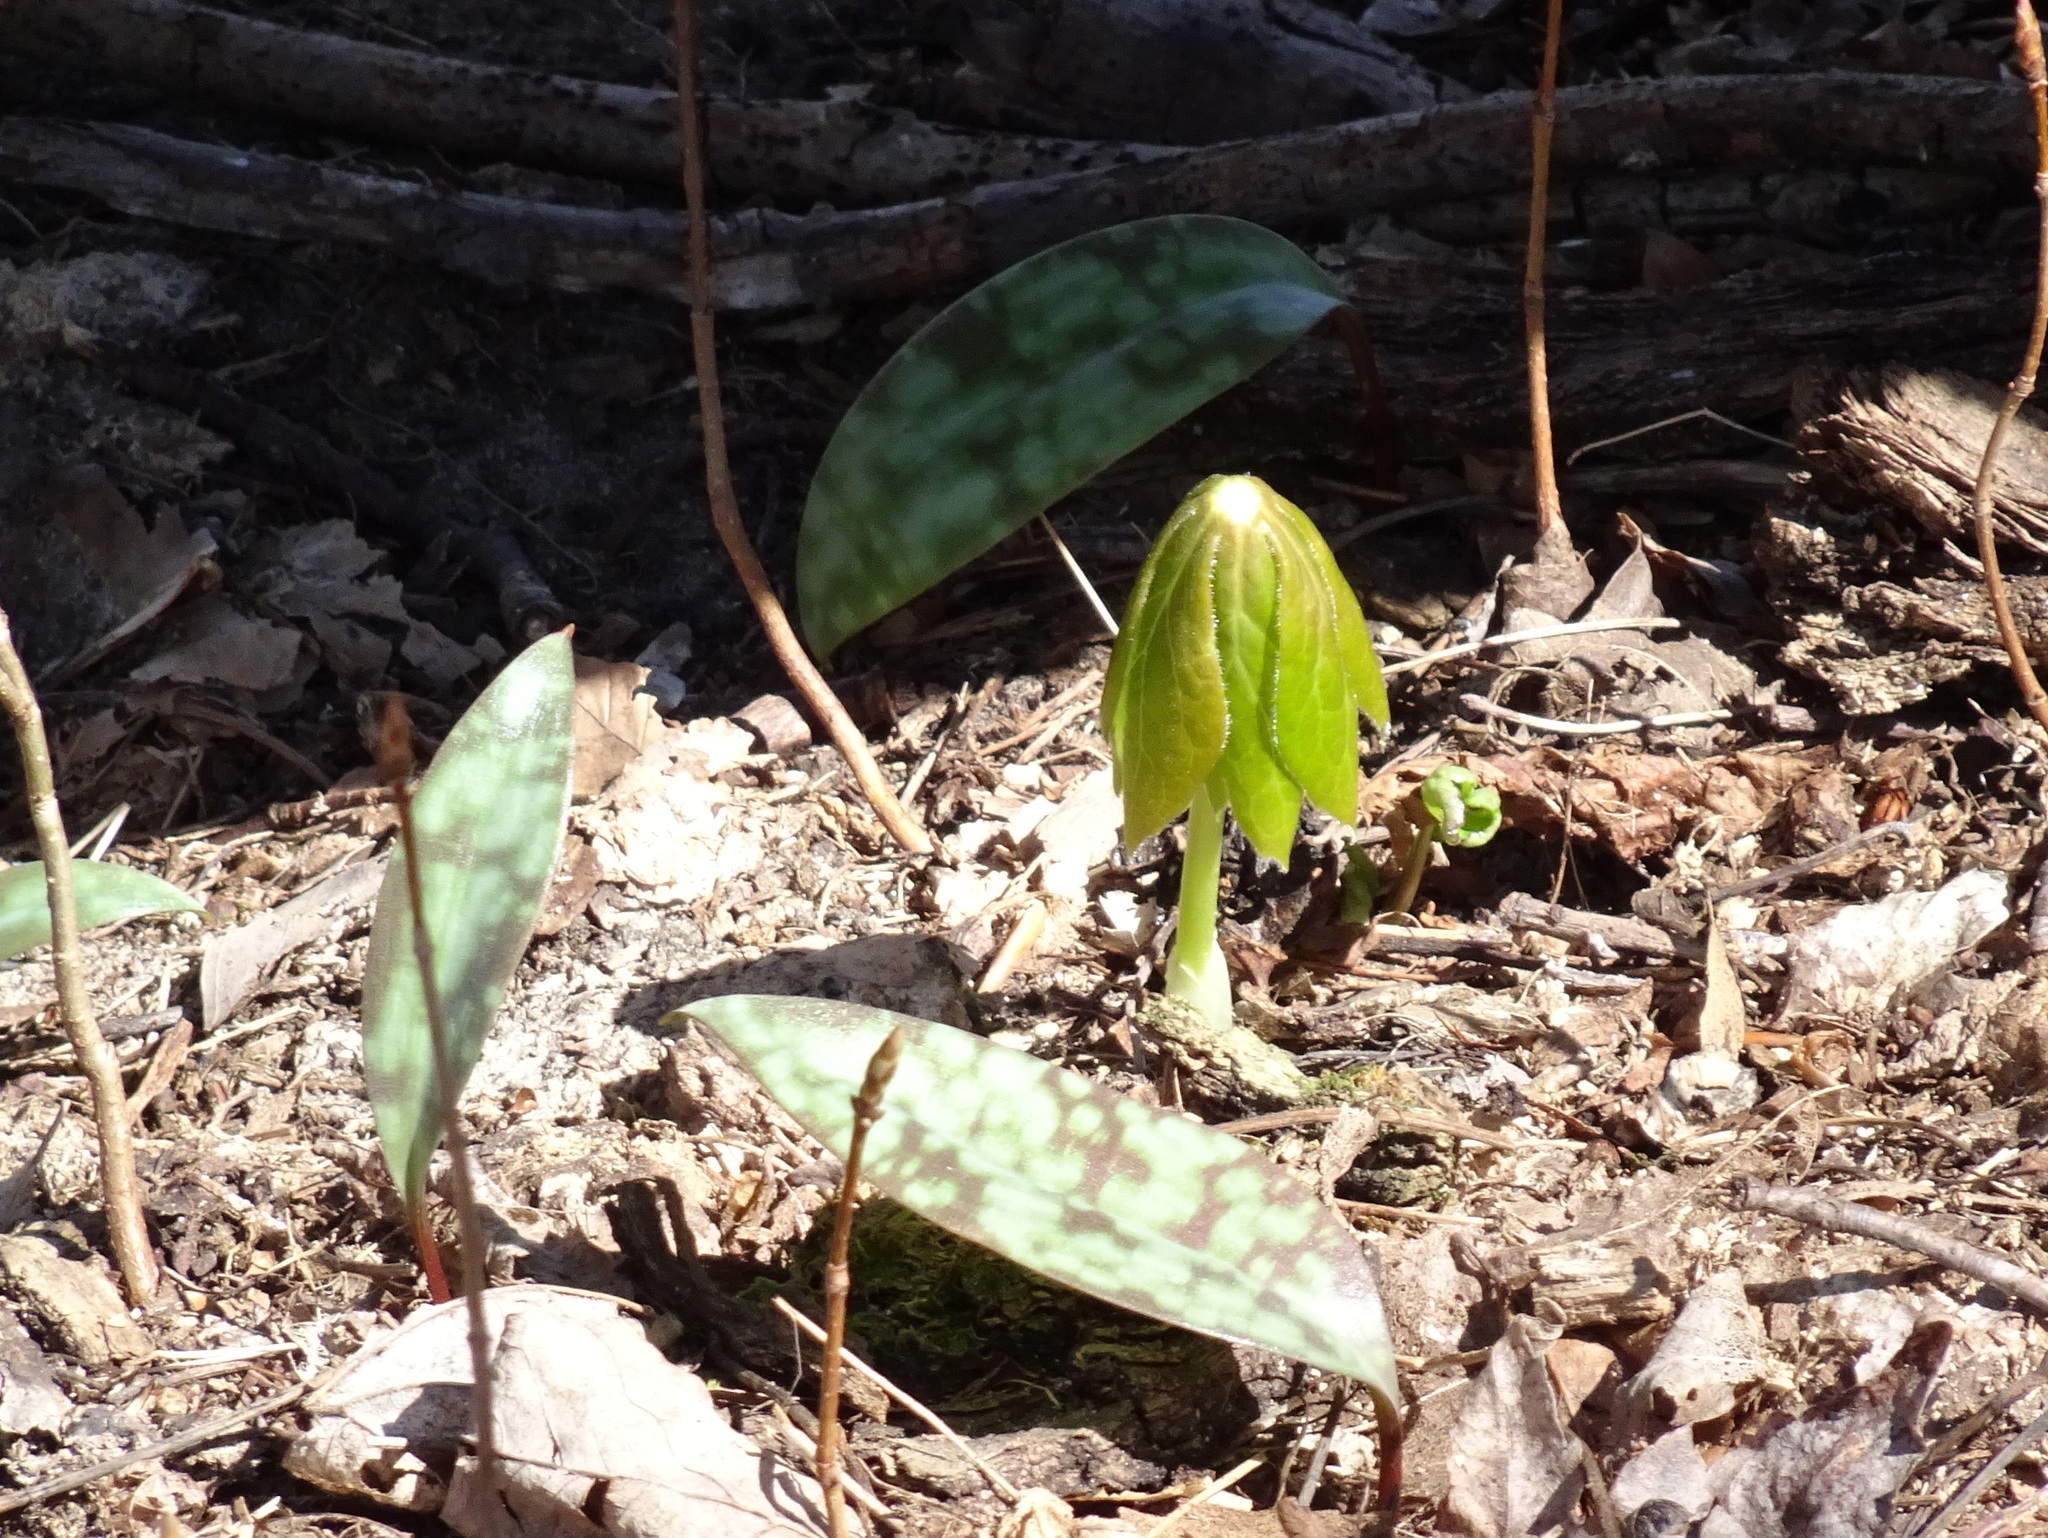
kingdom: Plantae
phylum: Tracheophyta
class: Magnoliopsida
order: Ranunculales
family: Berberidaceae
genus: Podophyllum
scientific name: Podophyllum peltatum
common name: Wild mandrake
